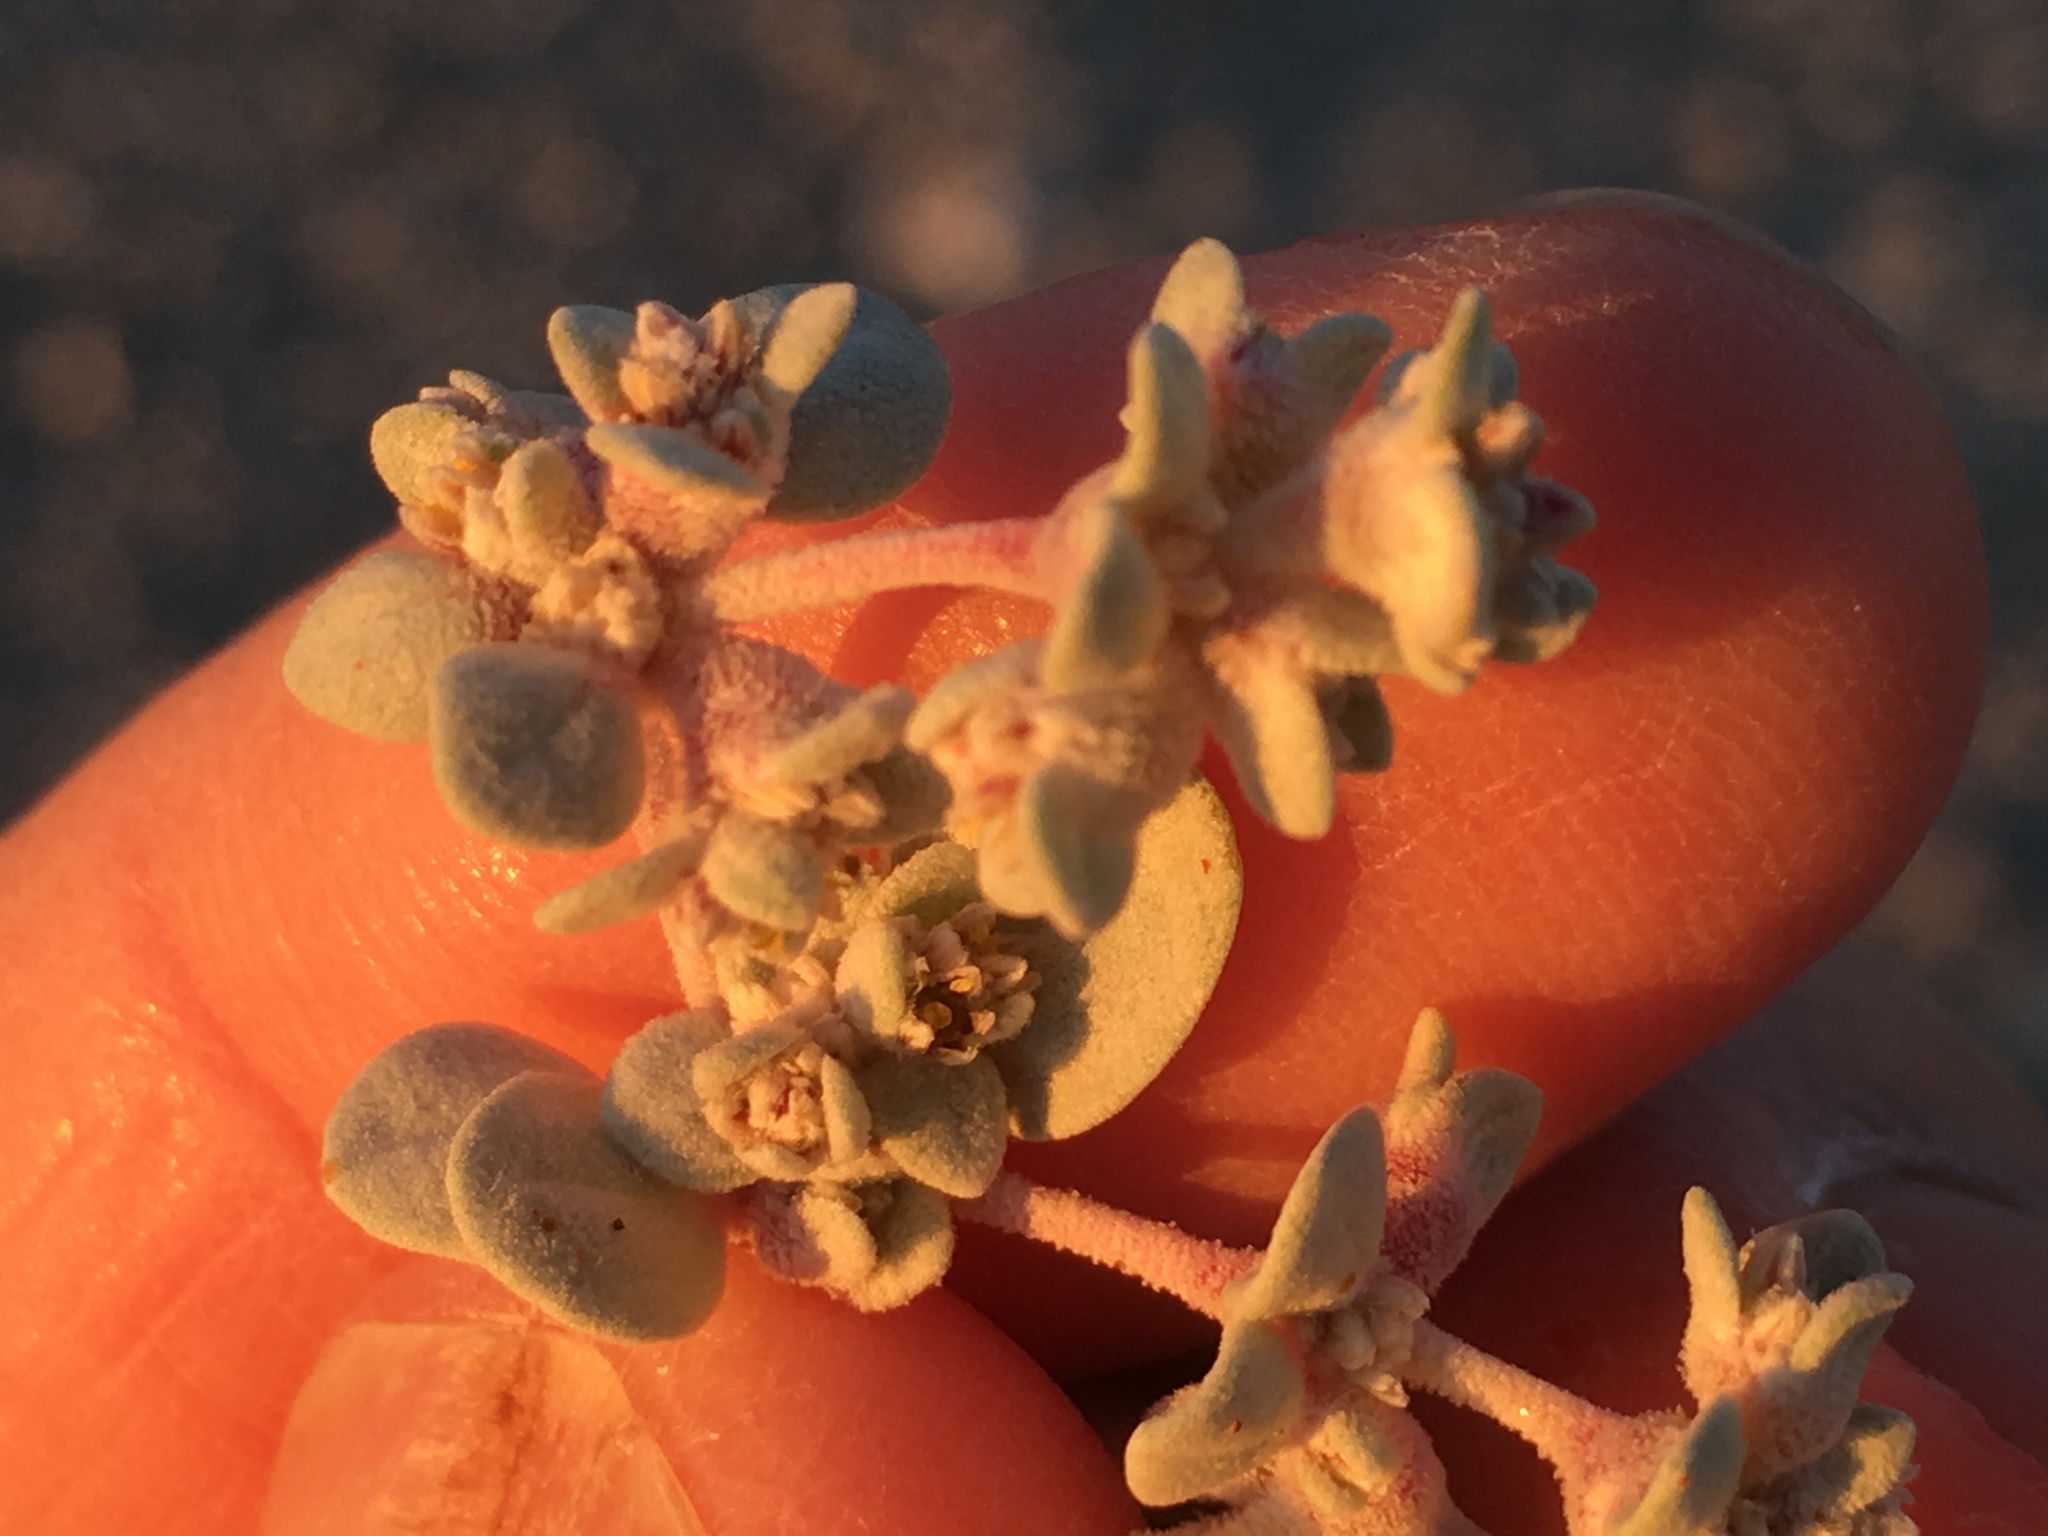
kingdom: Plantae
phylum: Tracheophyta
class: Magnoliopsida
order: Caryophyllales
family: Amaranthaceae
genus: Tidestromia
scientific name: Tidestromia suffruticosa
